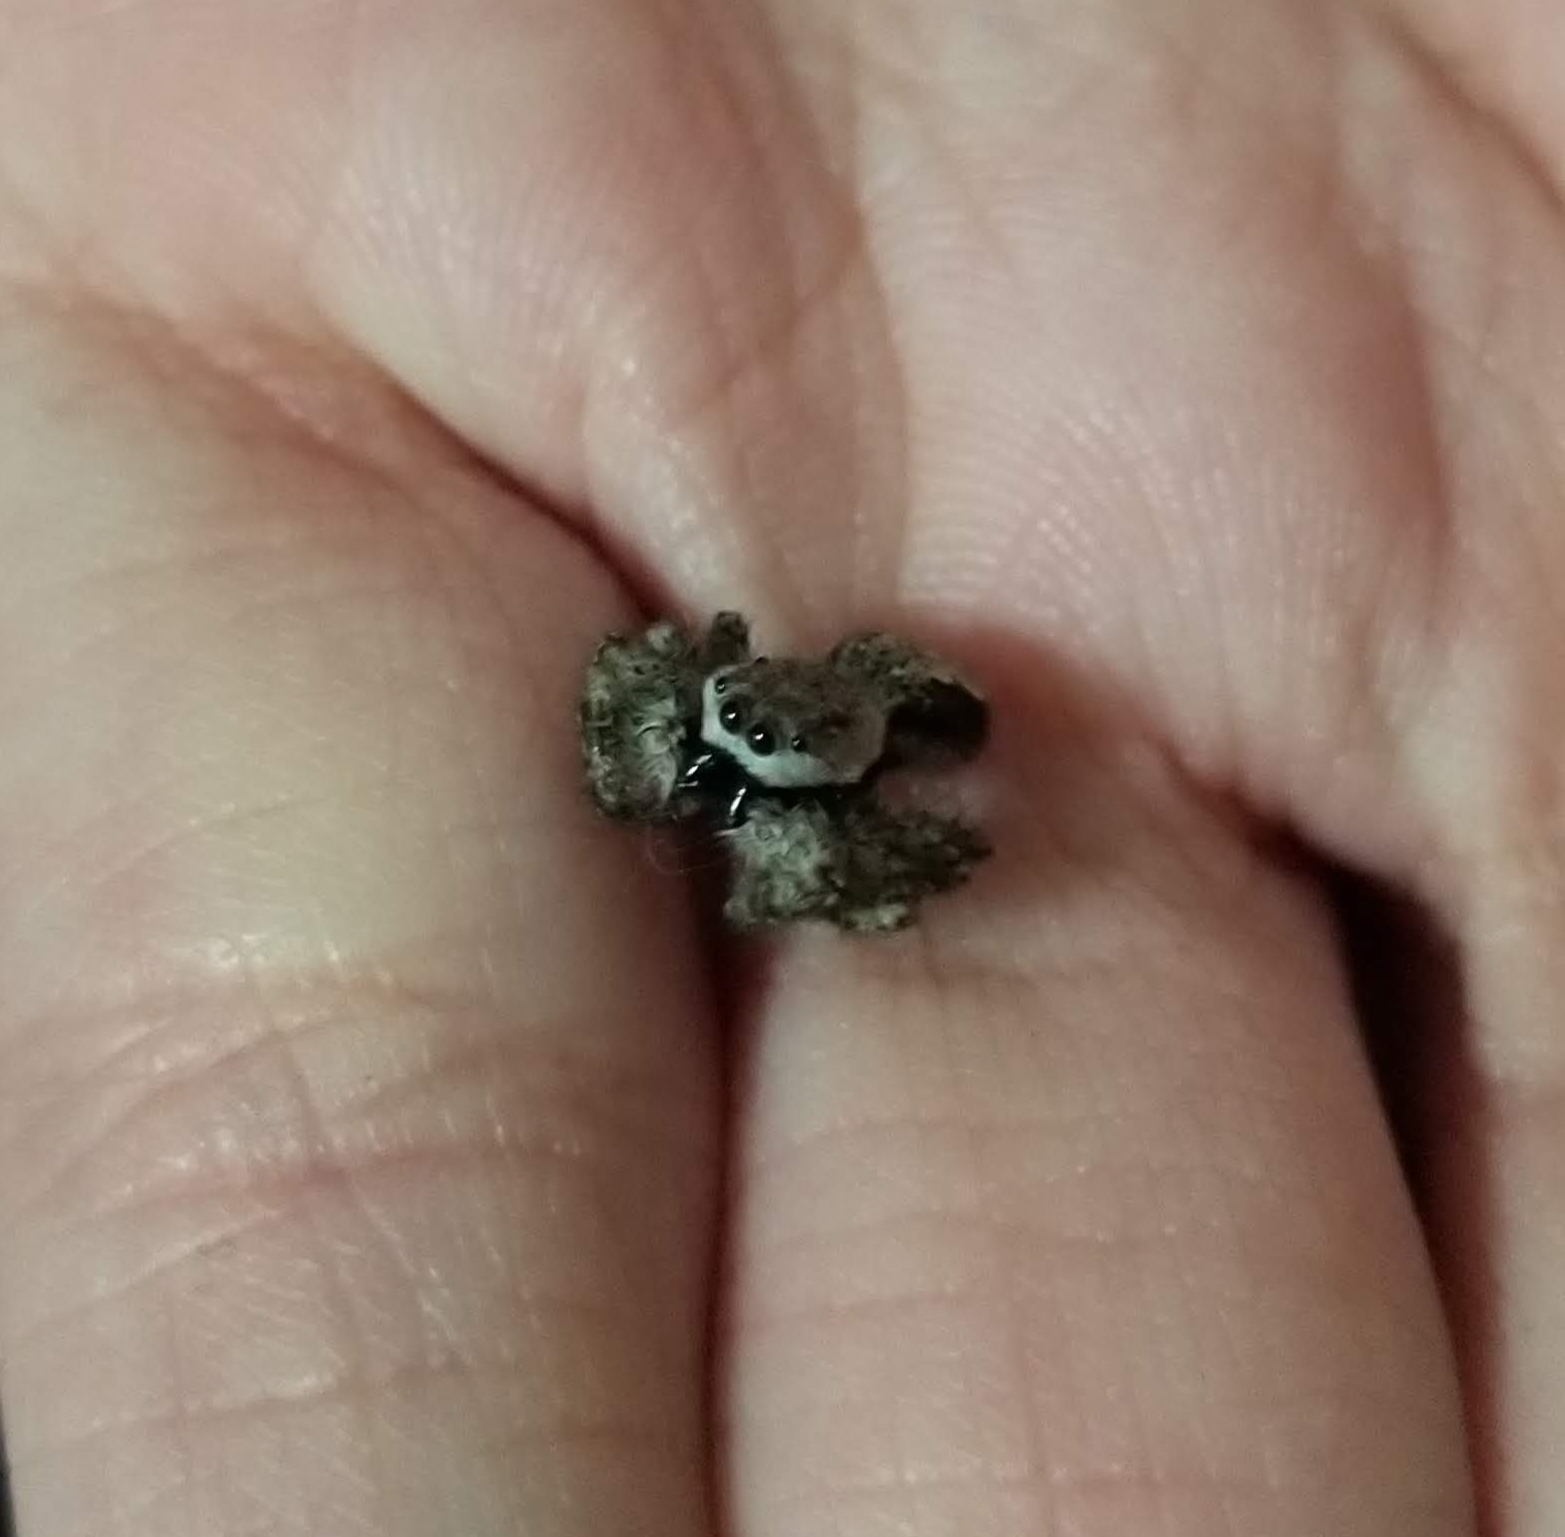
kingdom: Animalia
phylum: Arthropoda
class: Arachnida
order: Araneae
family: Salticidae
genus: Platycryptus
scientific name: Platycryptus undatus
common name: Tan jumping spider
